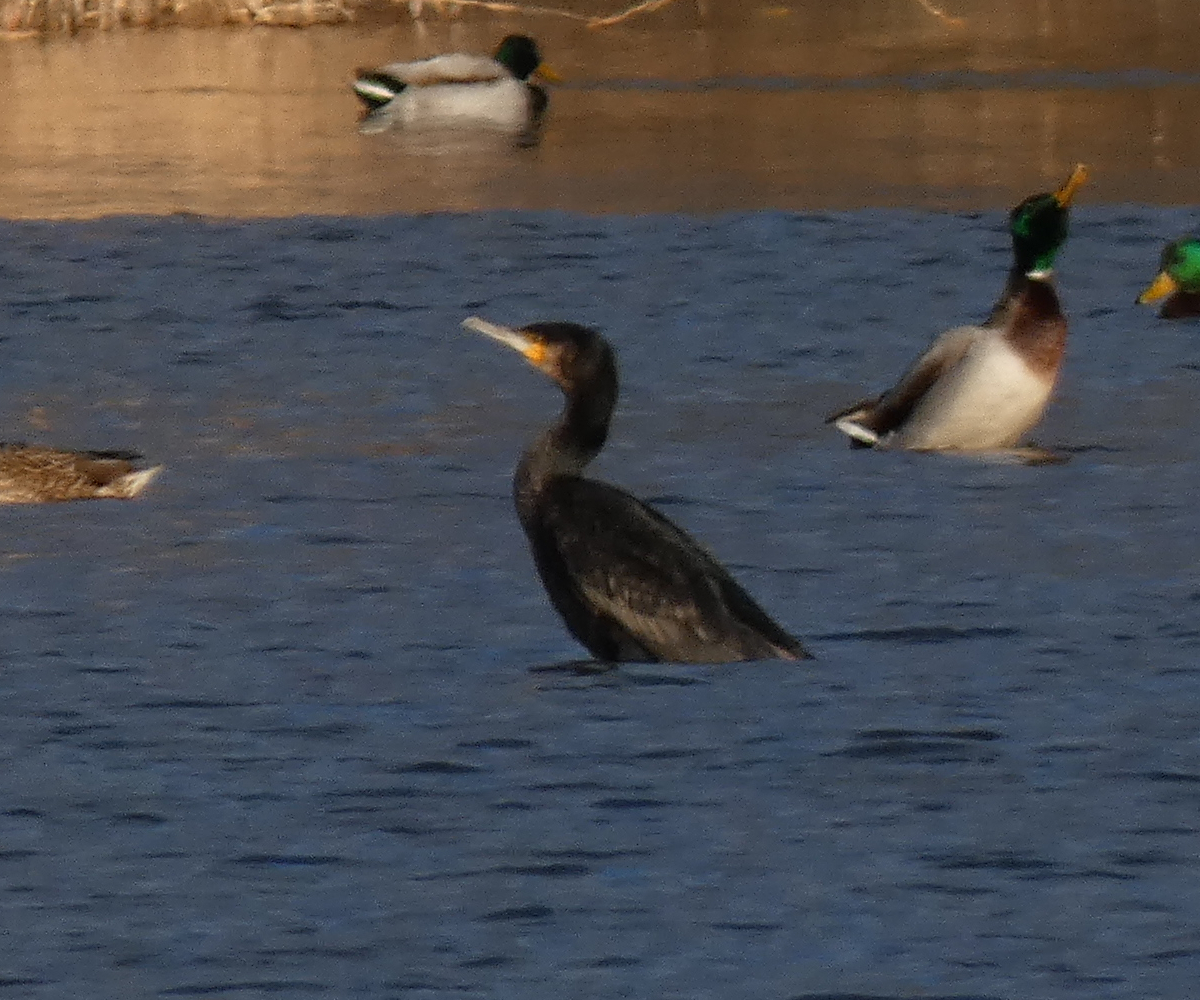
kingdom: Animalia
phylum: Chordata
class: Aves
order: Suliformes
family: Phalacrocoracidae
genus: Phalacrocorax
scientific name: Phalacrocorax carbo
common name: Great cormorant
